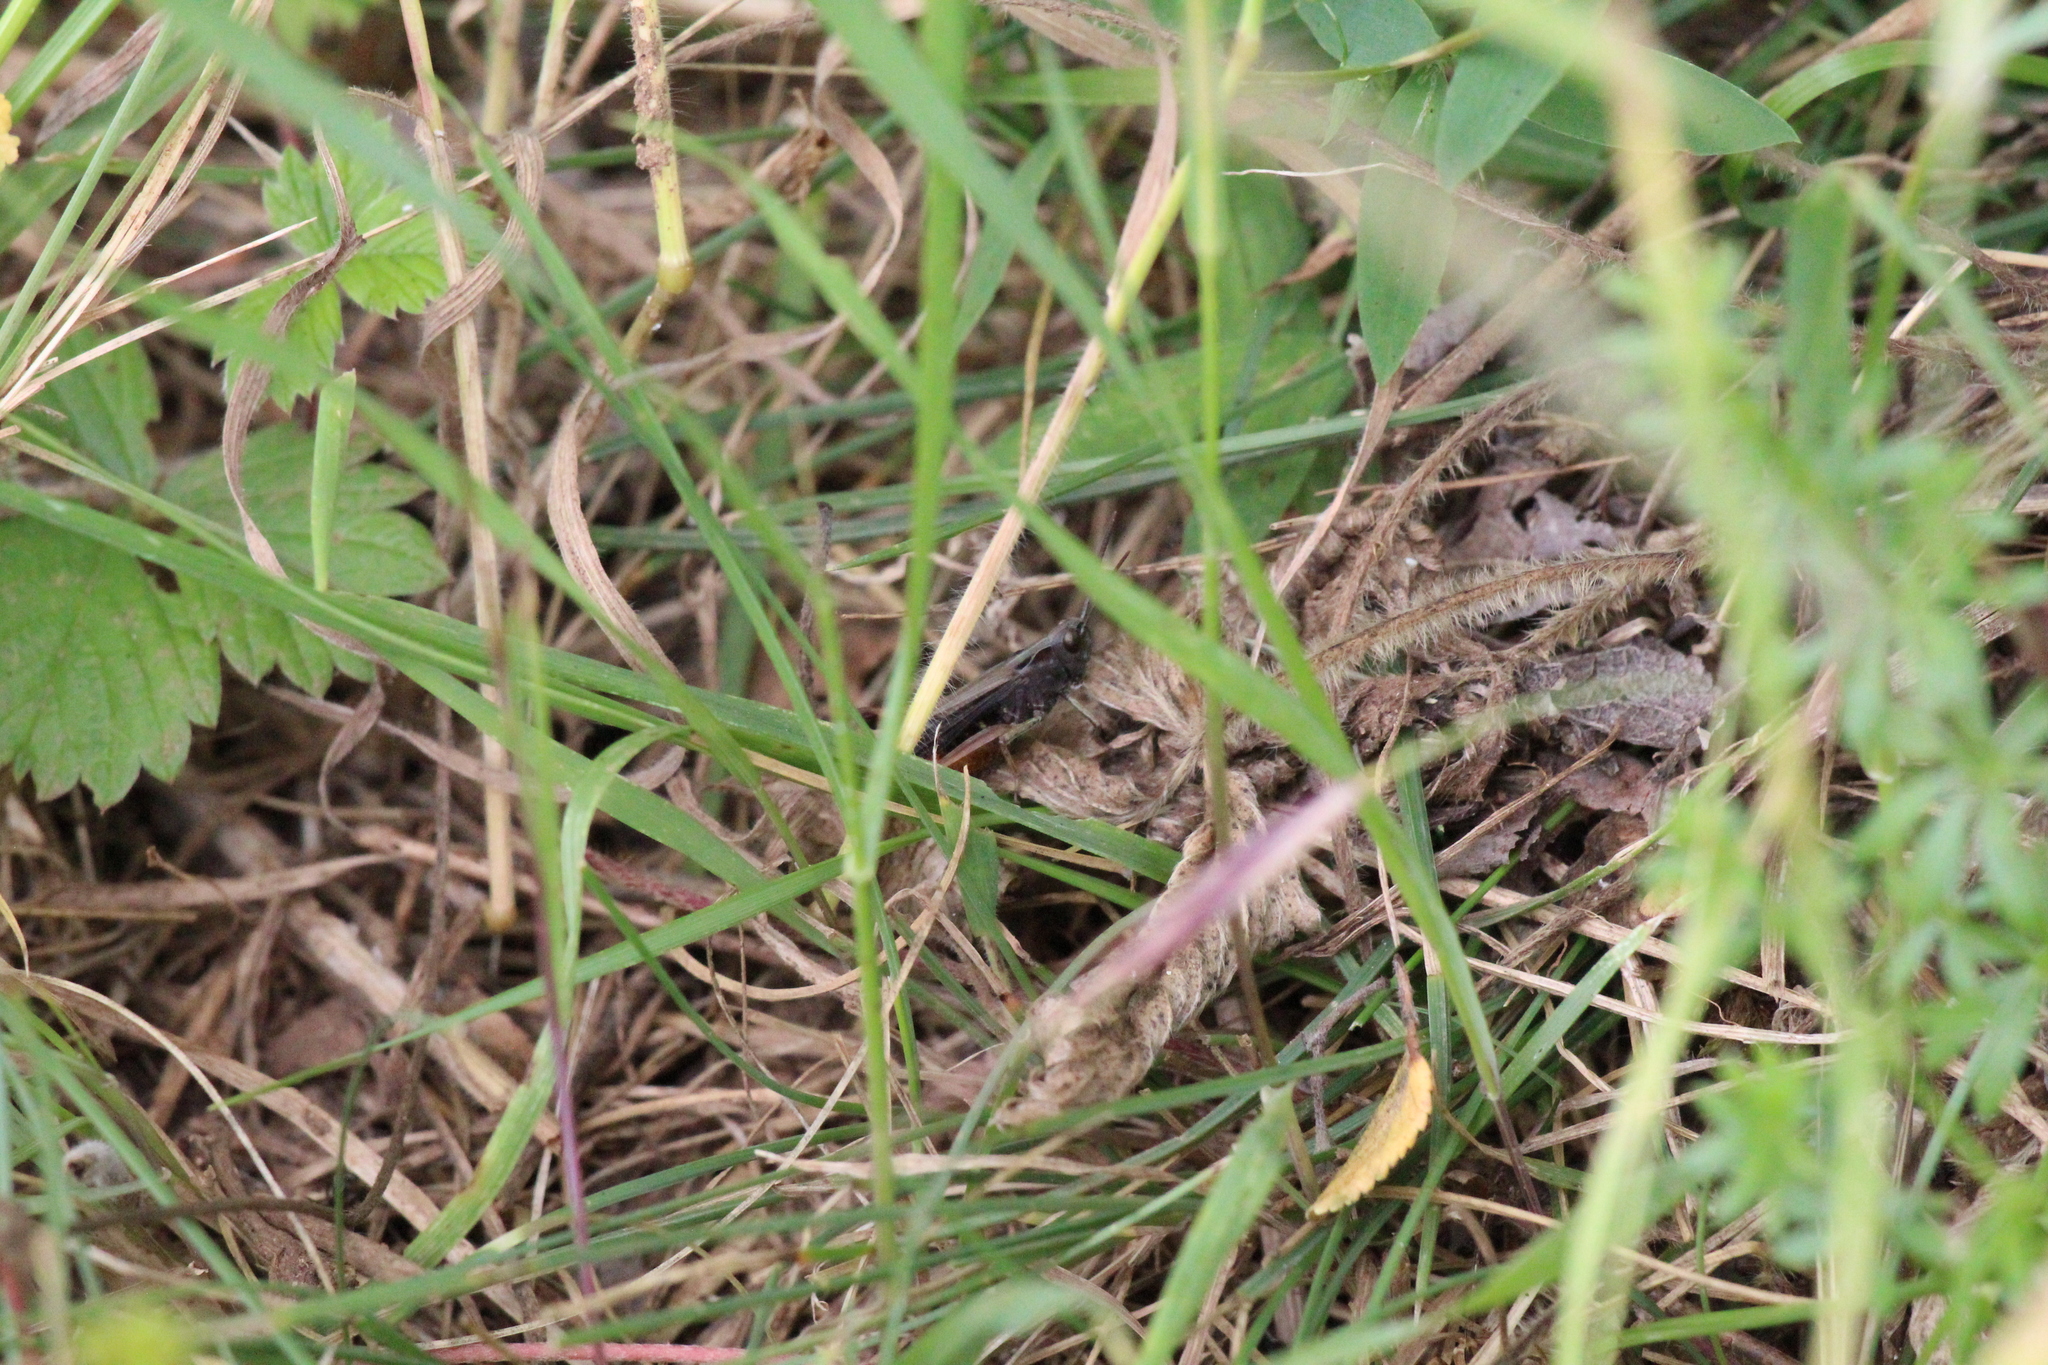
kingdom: Animalia
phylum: Arthropoda
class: Insecta
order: Orthoptera
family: Acrididae
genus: Omocestus
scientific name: Omocestus rufipes
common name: Woodland grasshopper
